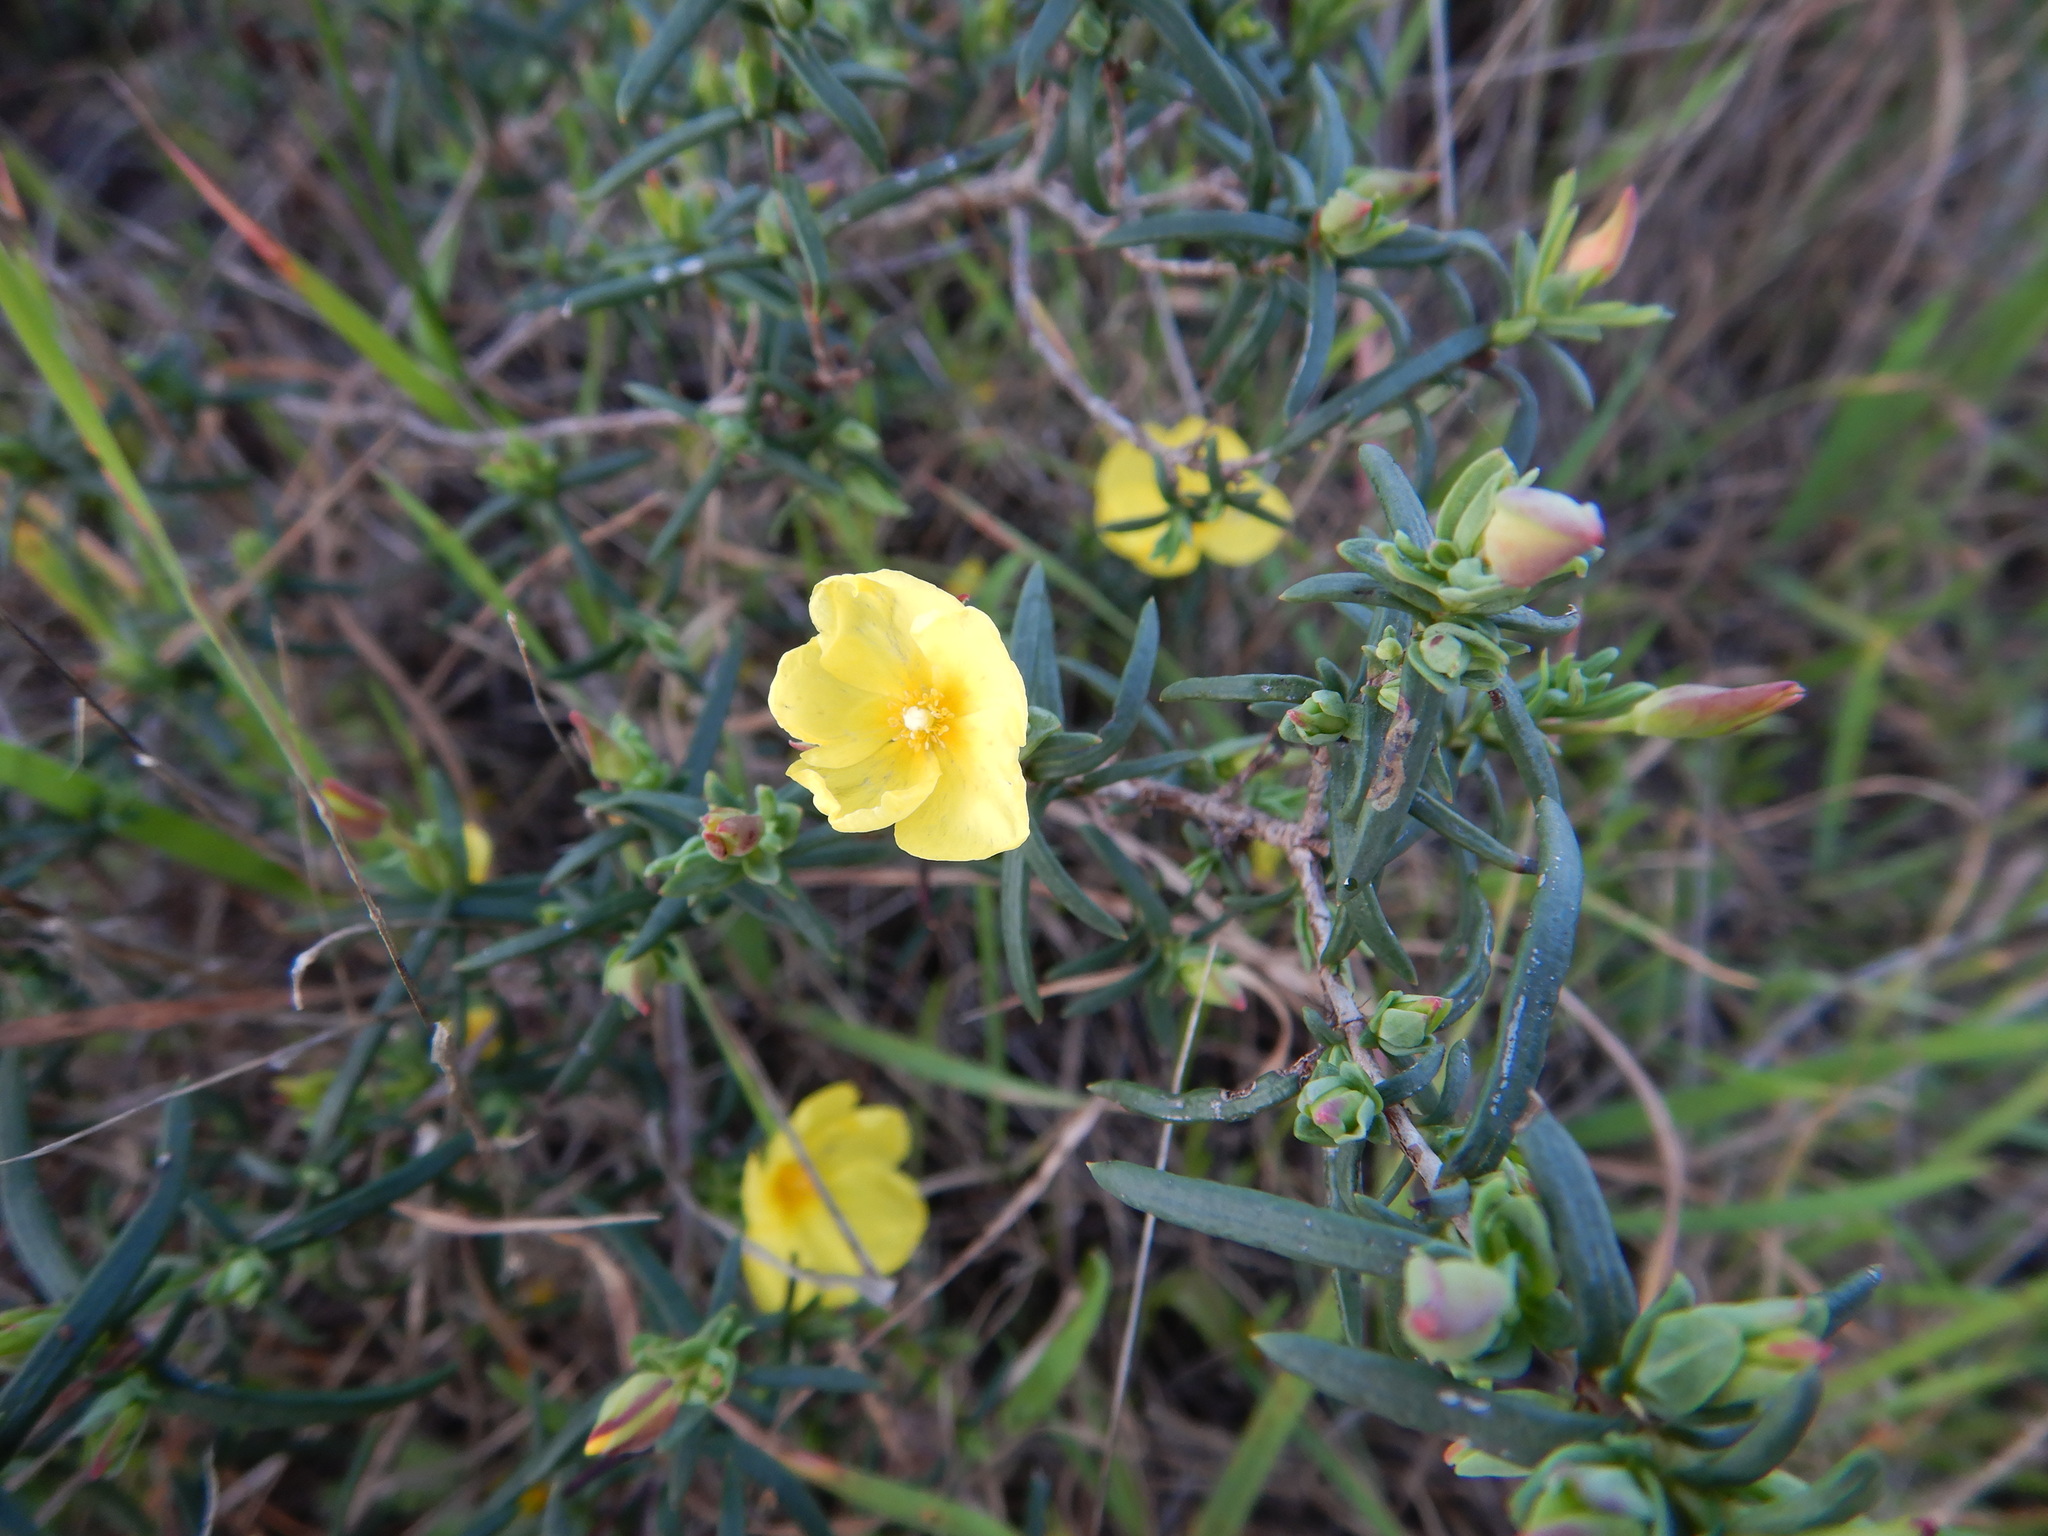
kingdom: Plantae
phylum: Tracheophyta
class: Magnoliopsida
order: Malvales
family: Cistaceae
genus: Halimium
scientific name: Halimium calycinum
